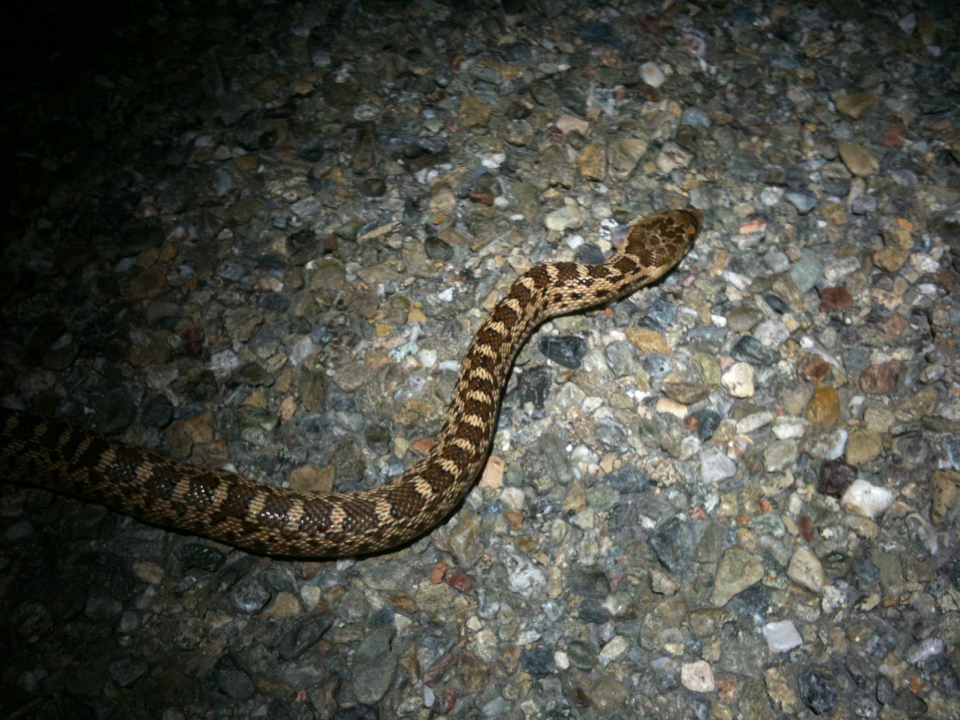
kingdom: Animalia
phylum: Chordata
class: Squamata
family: Colubridae
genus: Pituophis
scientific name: Pituophis catenifer
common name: Gopher snake
